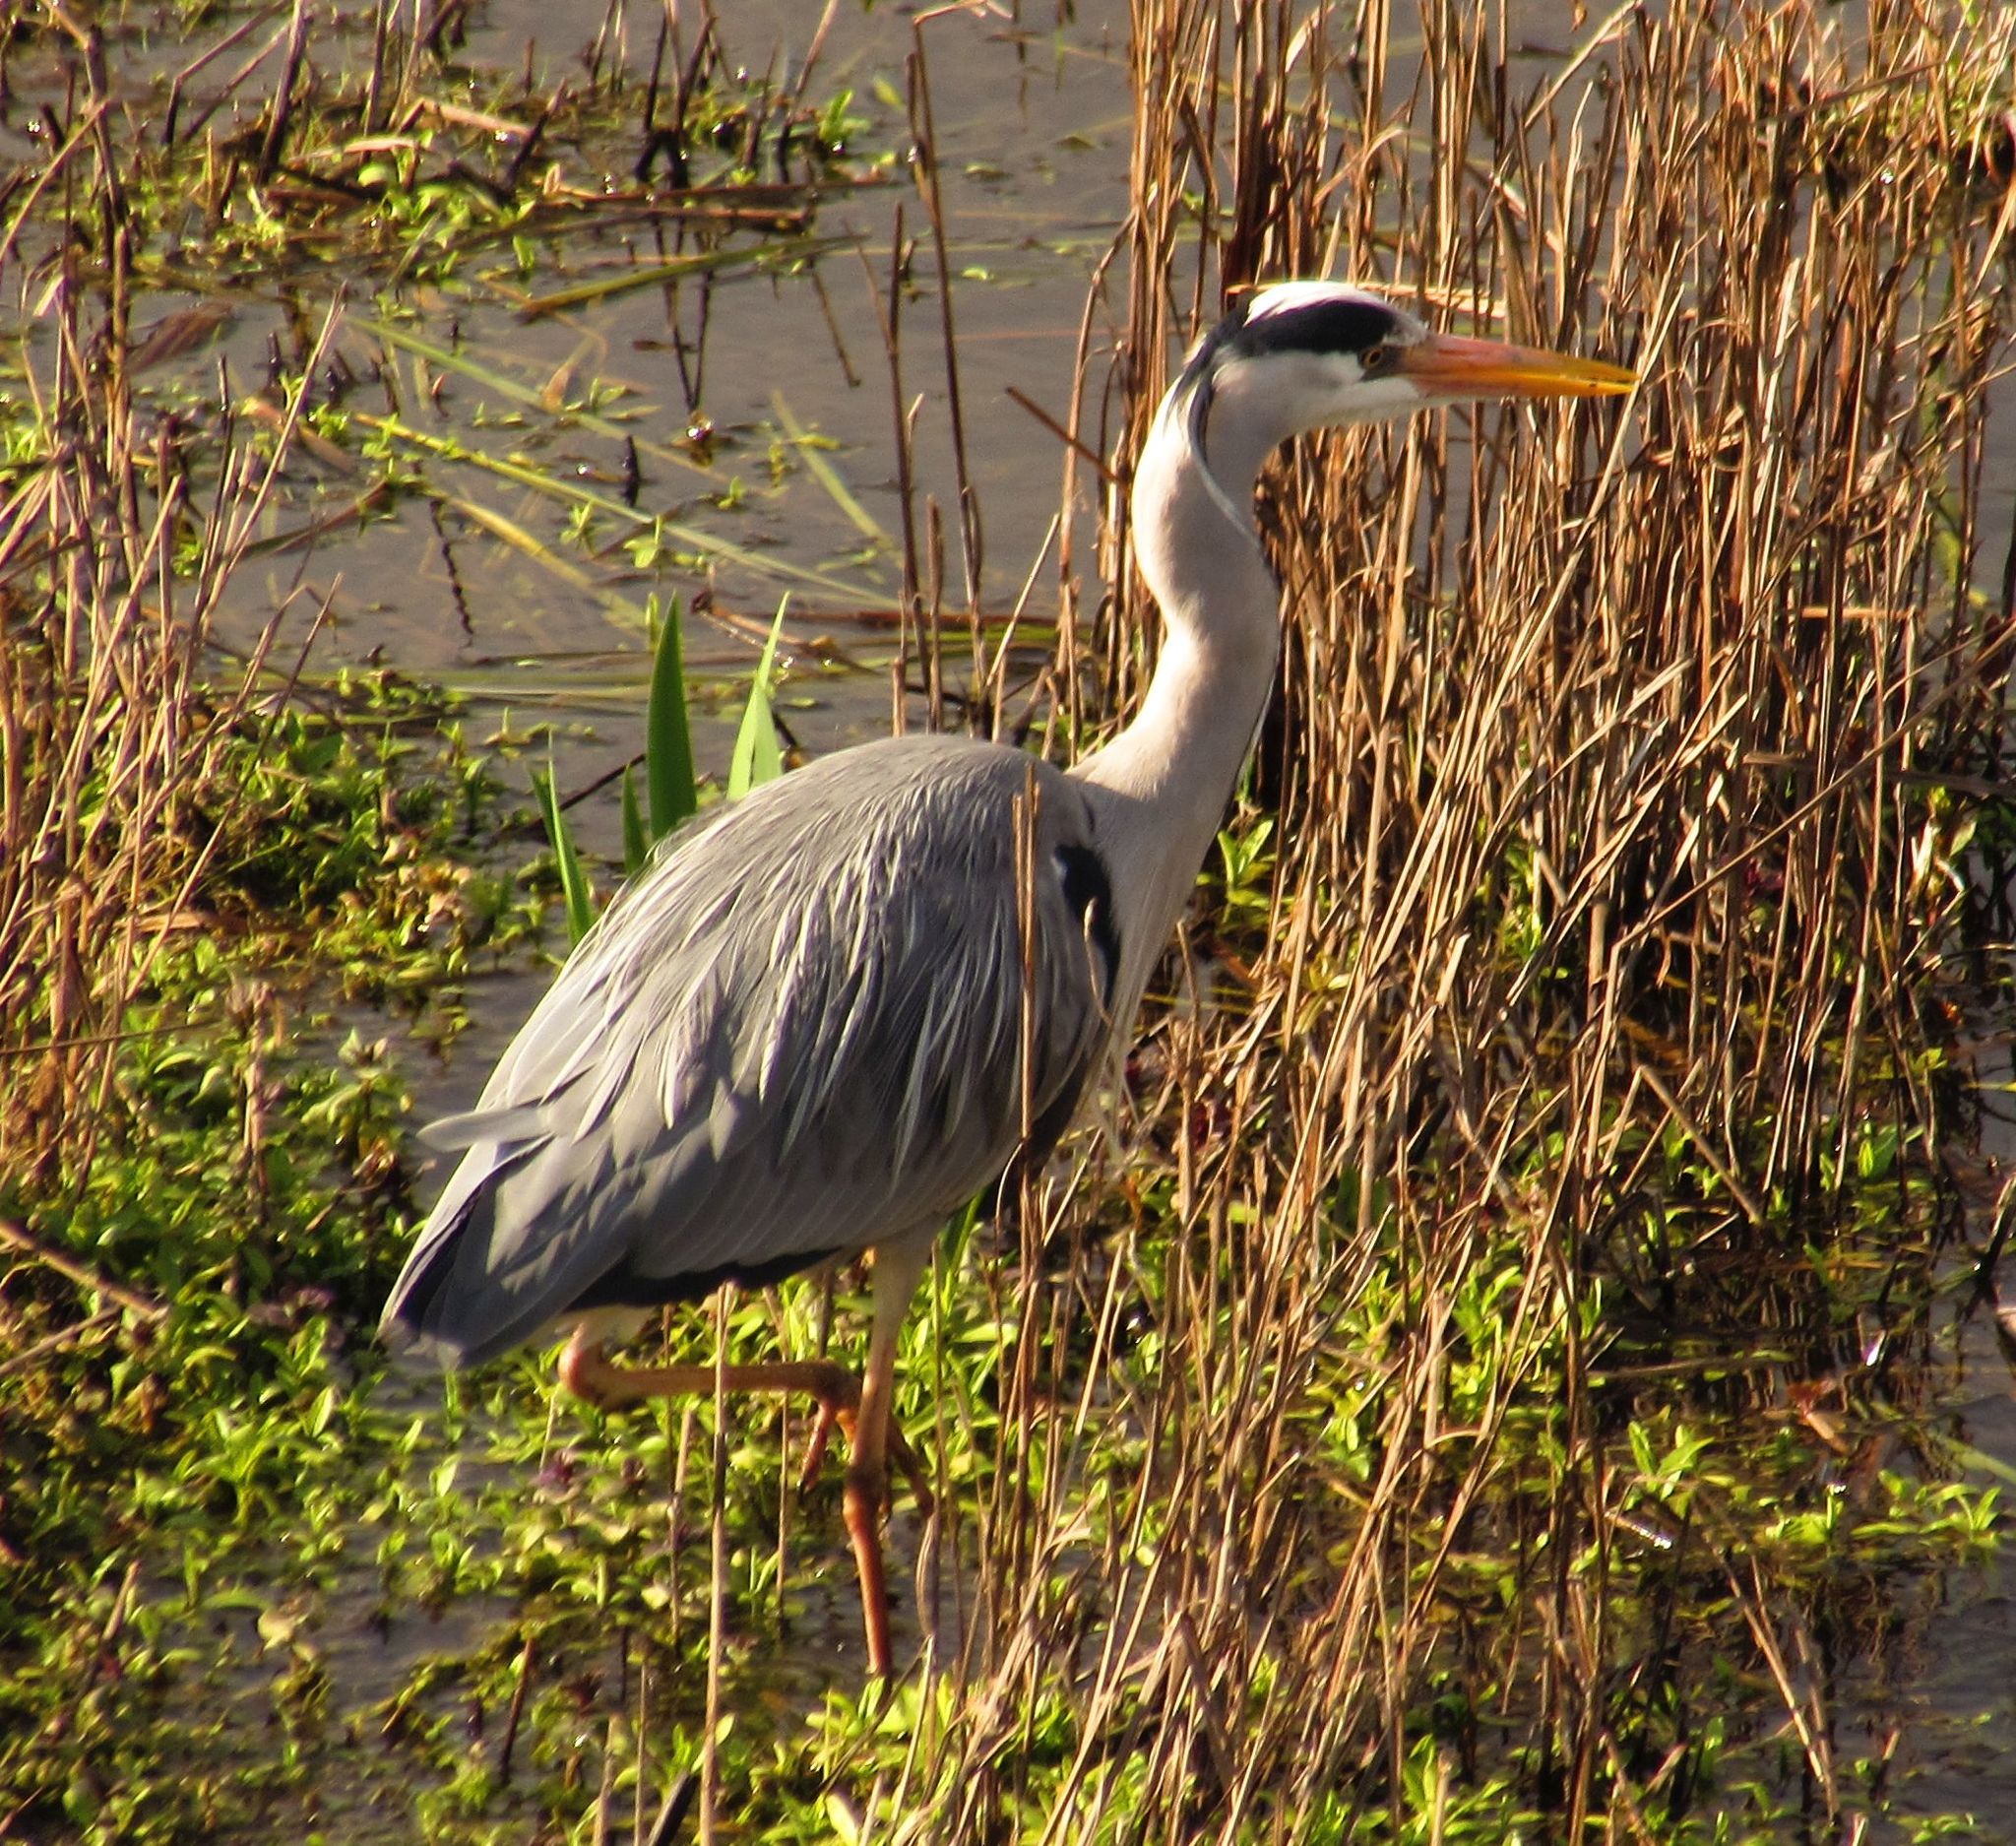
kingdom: Animalia
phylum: Chordata
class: Aves
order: Pelecaniformes
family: Ardeidae
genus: Ardea
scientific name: Ardea cinerea
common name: Grey heron
